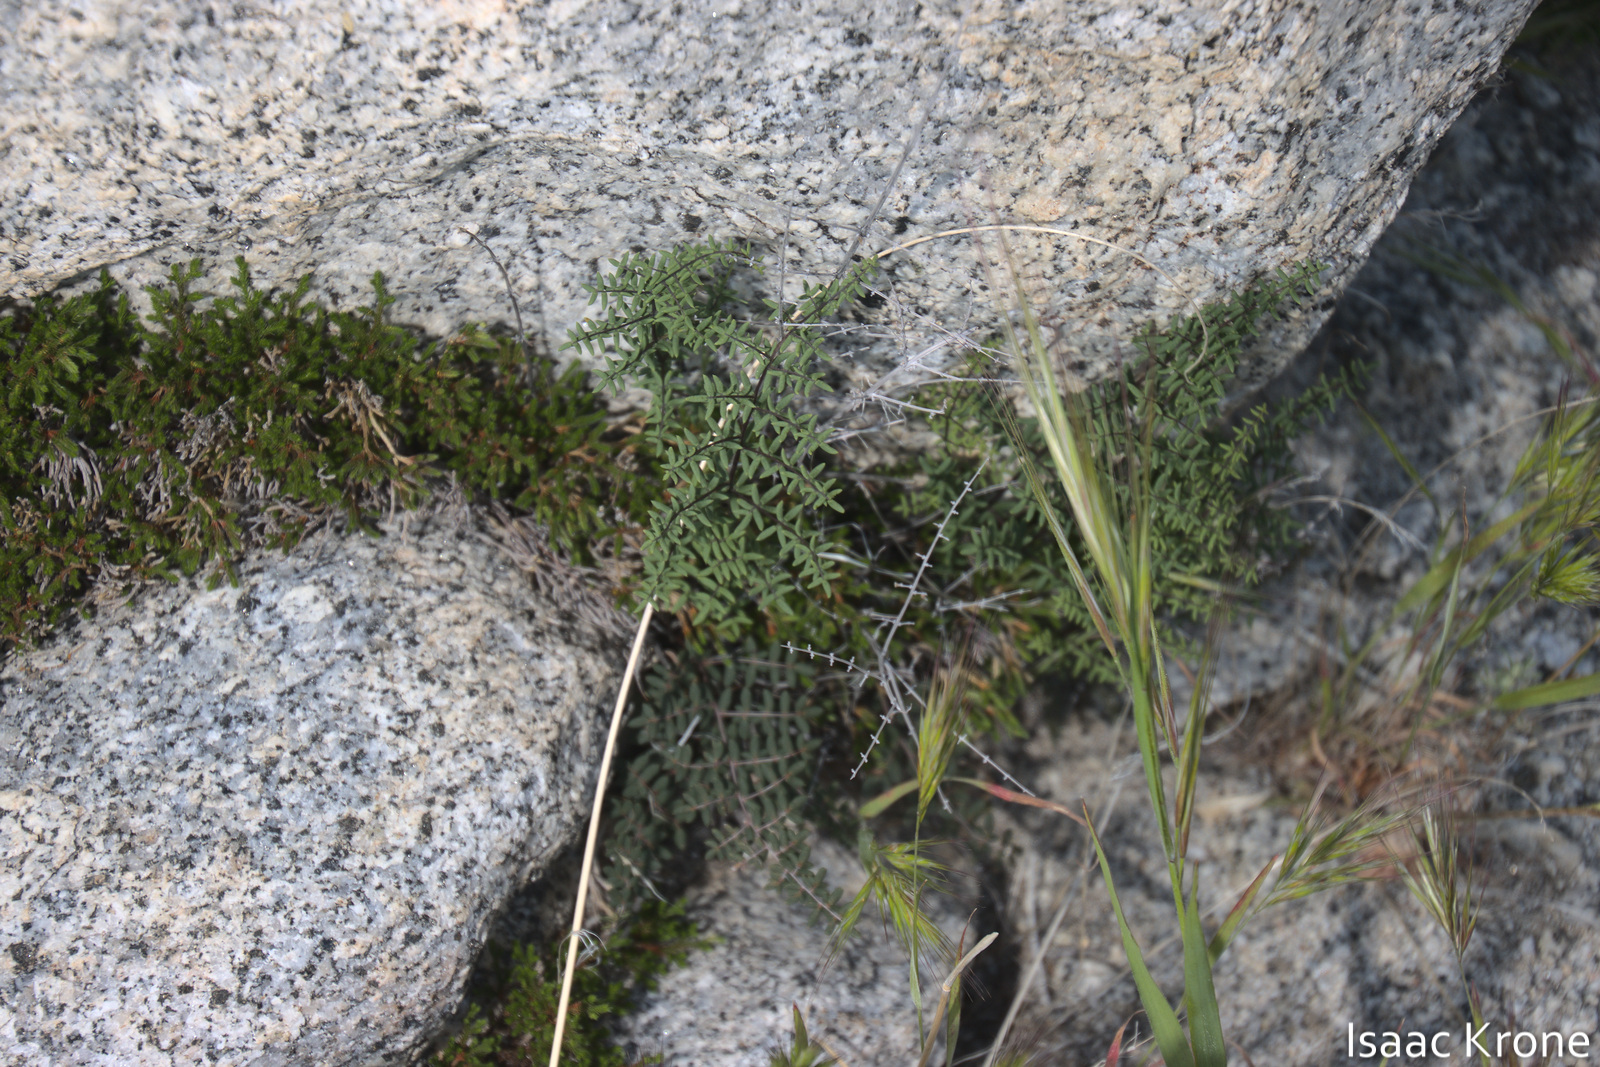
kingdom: Plantae
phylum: Tracheophyta
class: Polypodiopsida
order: Polypodiales
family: Pteridaceae
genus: Pellaea
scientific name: Pellaea mucronata
